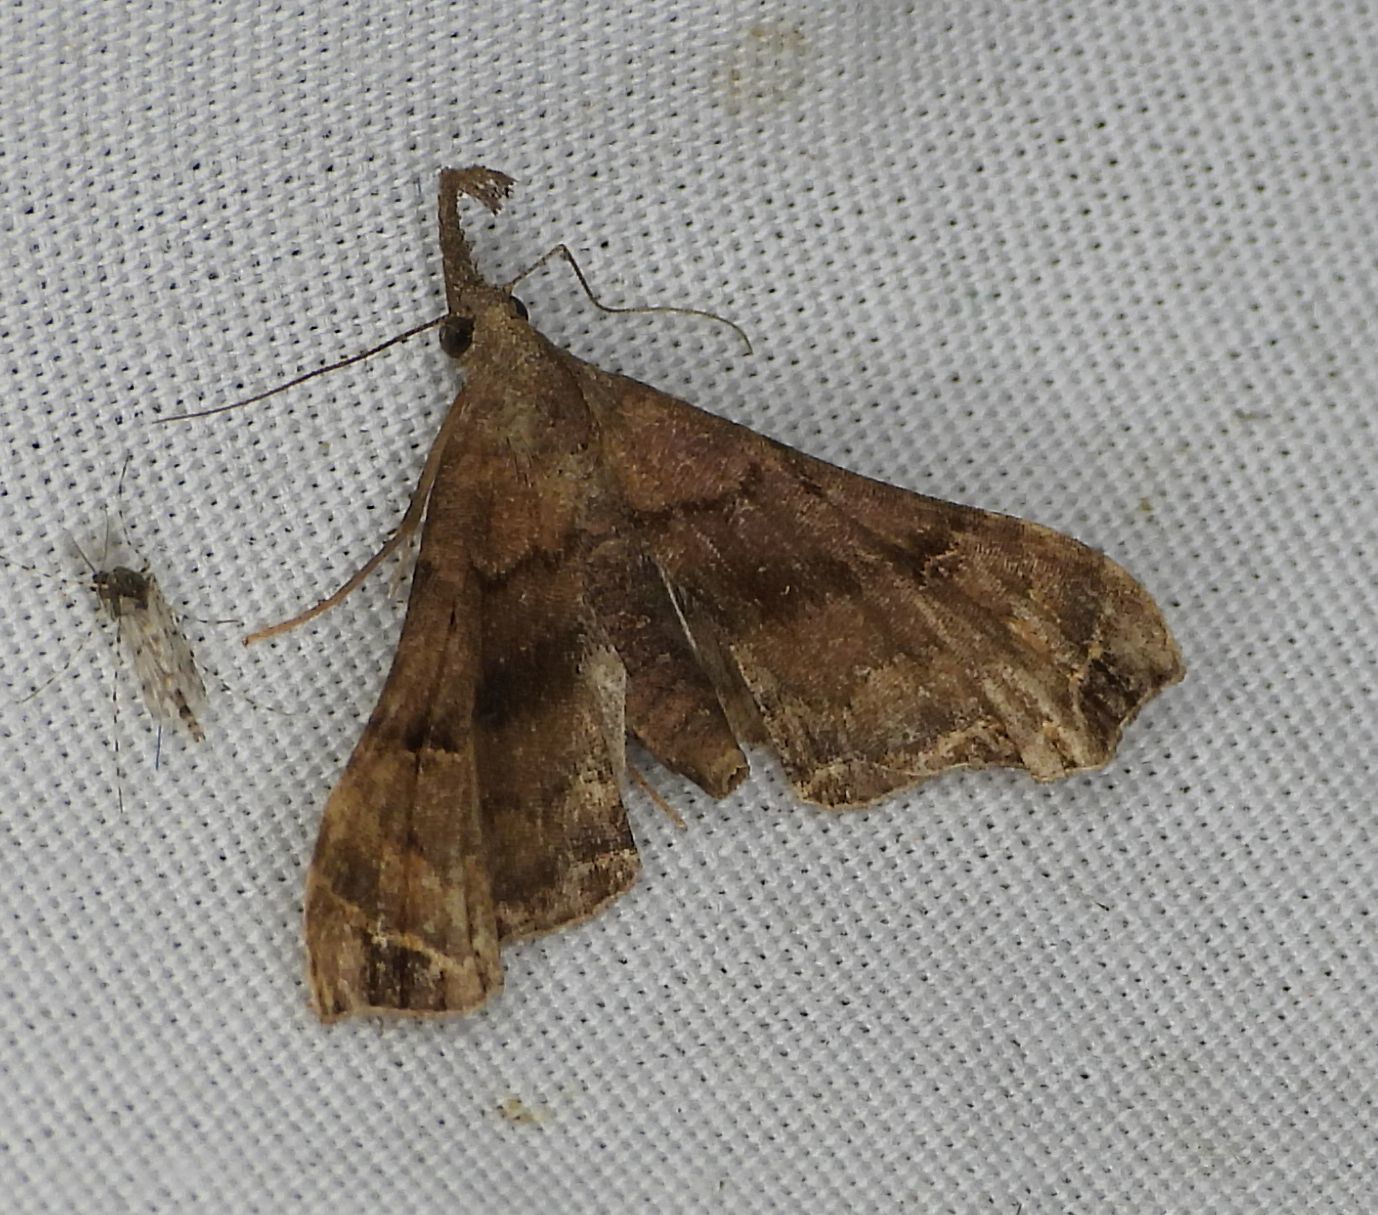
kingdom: Animalia
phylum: Arthropoda
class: Insecta
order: Lepidoptera
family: Erebidae
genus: Palthis
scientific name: Palthis asopialis
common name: Faint-spotted palthis moth
